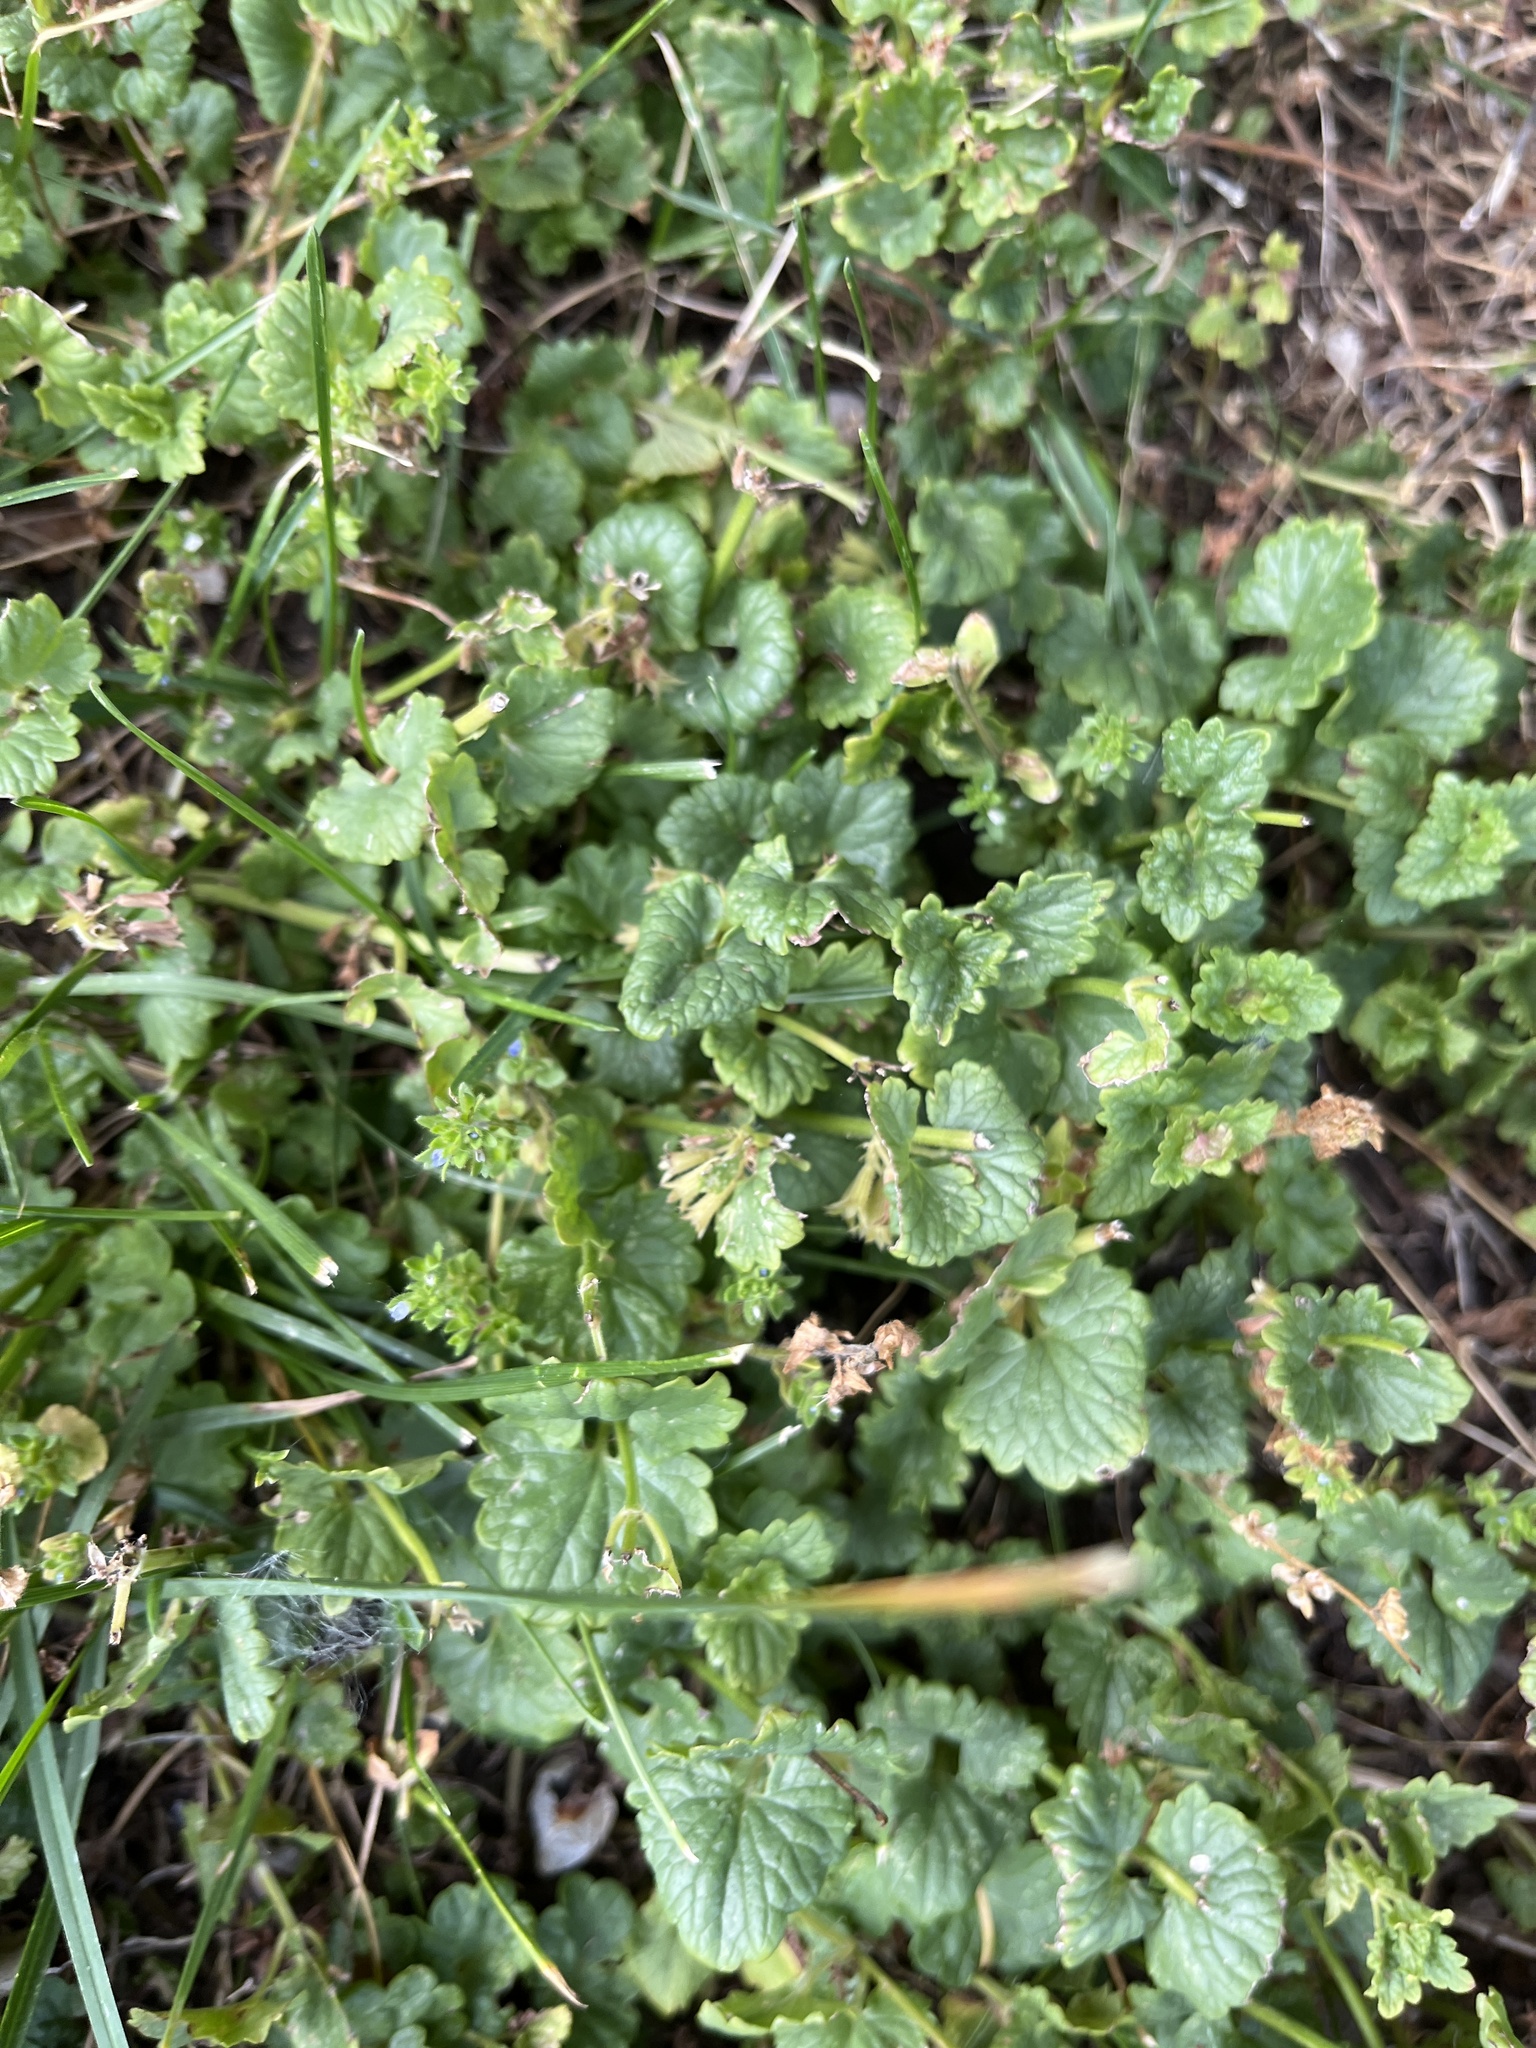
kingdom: Plantae
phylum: Tracheophyta
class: Magnoliopsida
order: Lamiales
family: Lamiaceae
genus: Glechoma
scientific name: Glechoma hederacea
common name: Ground ivy
